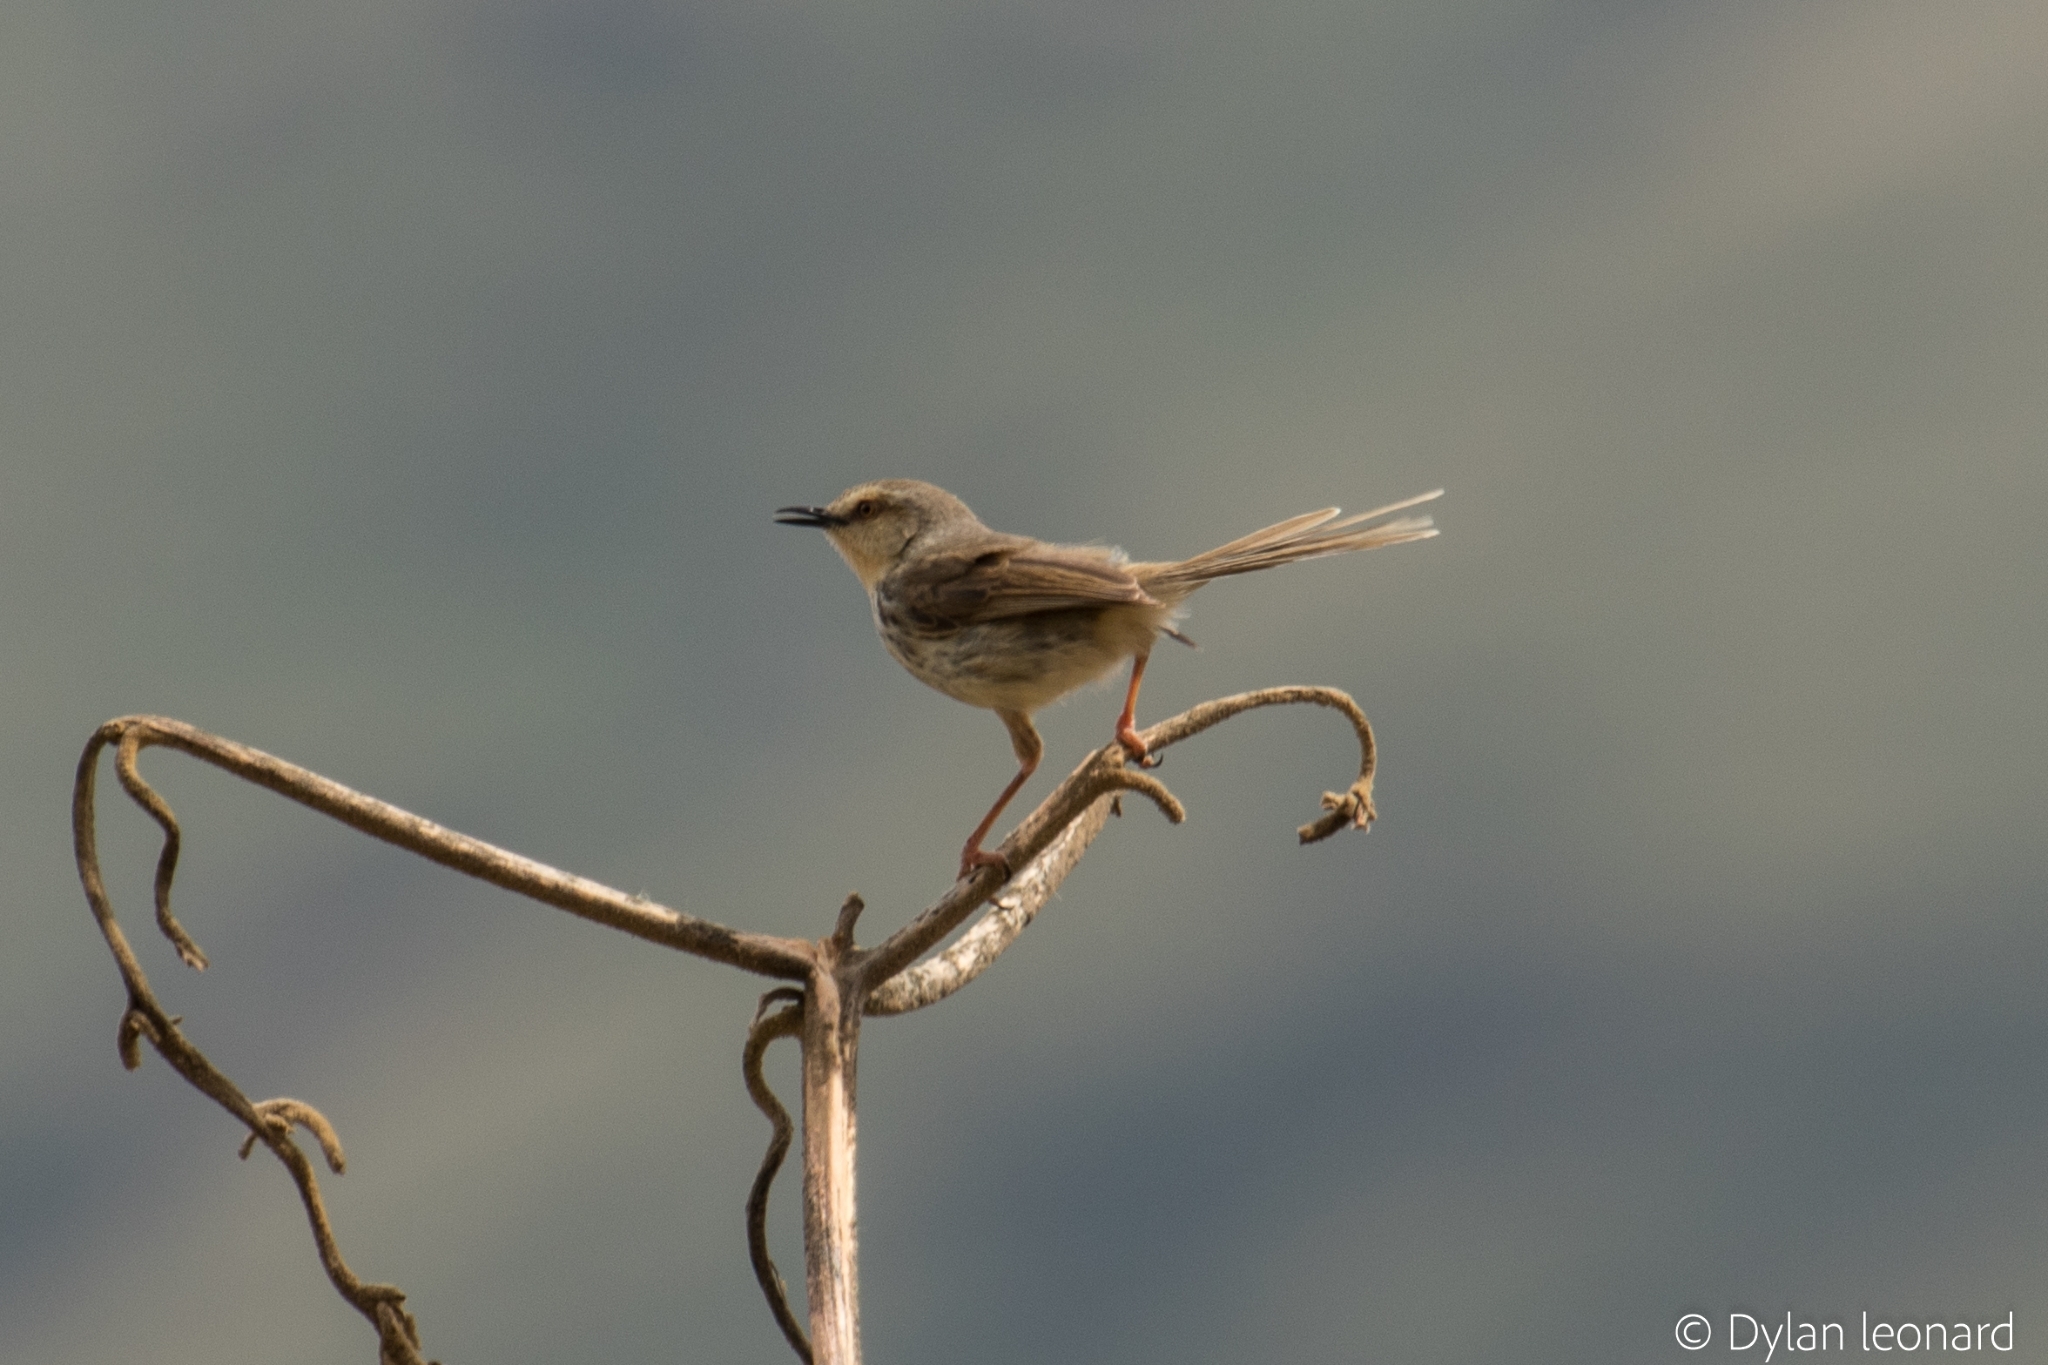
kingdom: Animalia
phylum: Chordata
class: Aves
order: Passeriformes
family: Cisticolidae
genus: Prinia
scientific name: Prinia hypoxantha
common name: Drakensberg prinia
